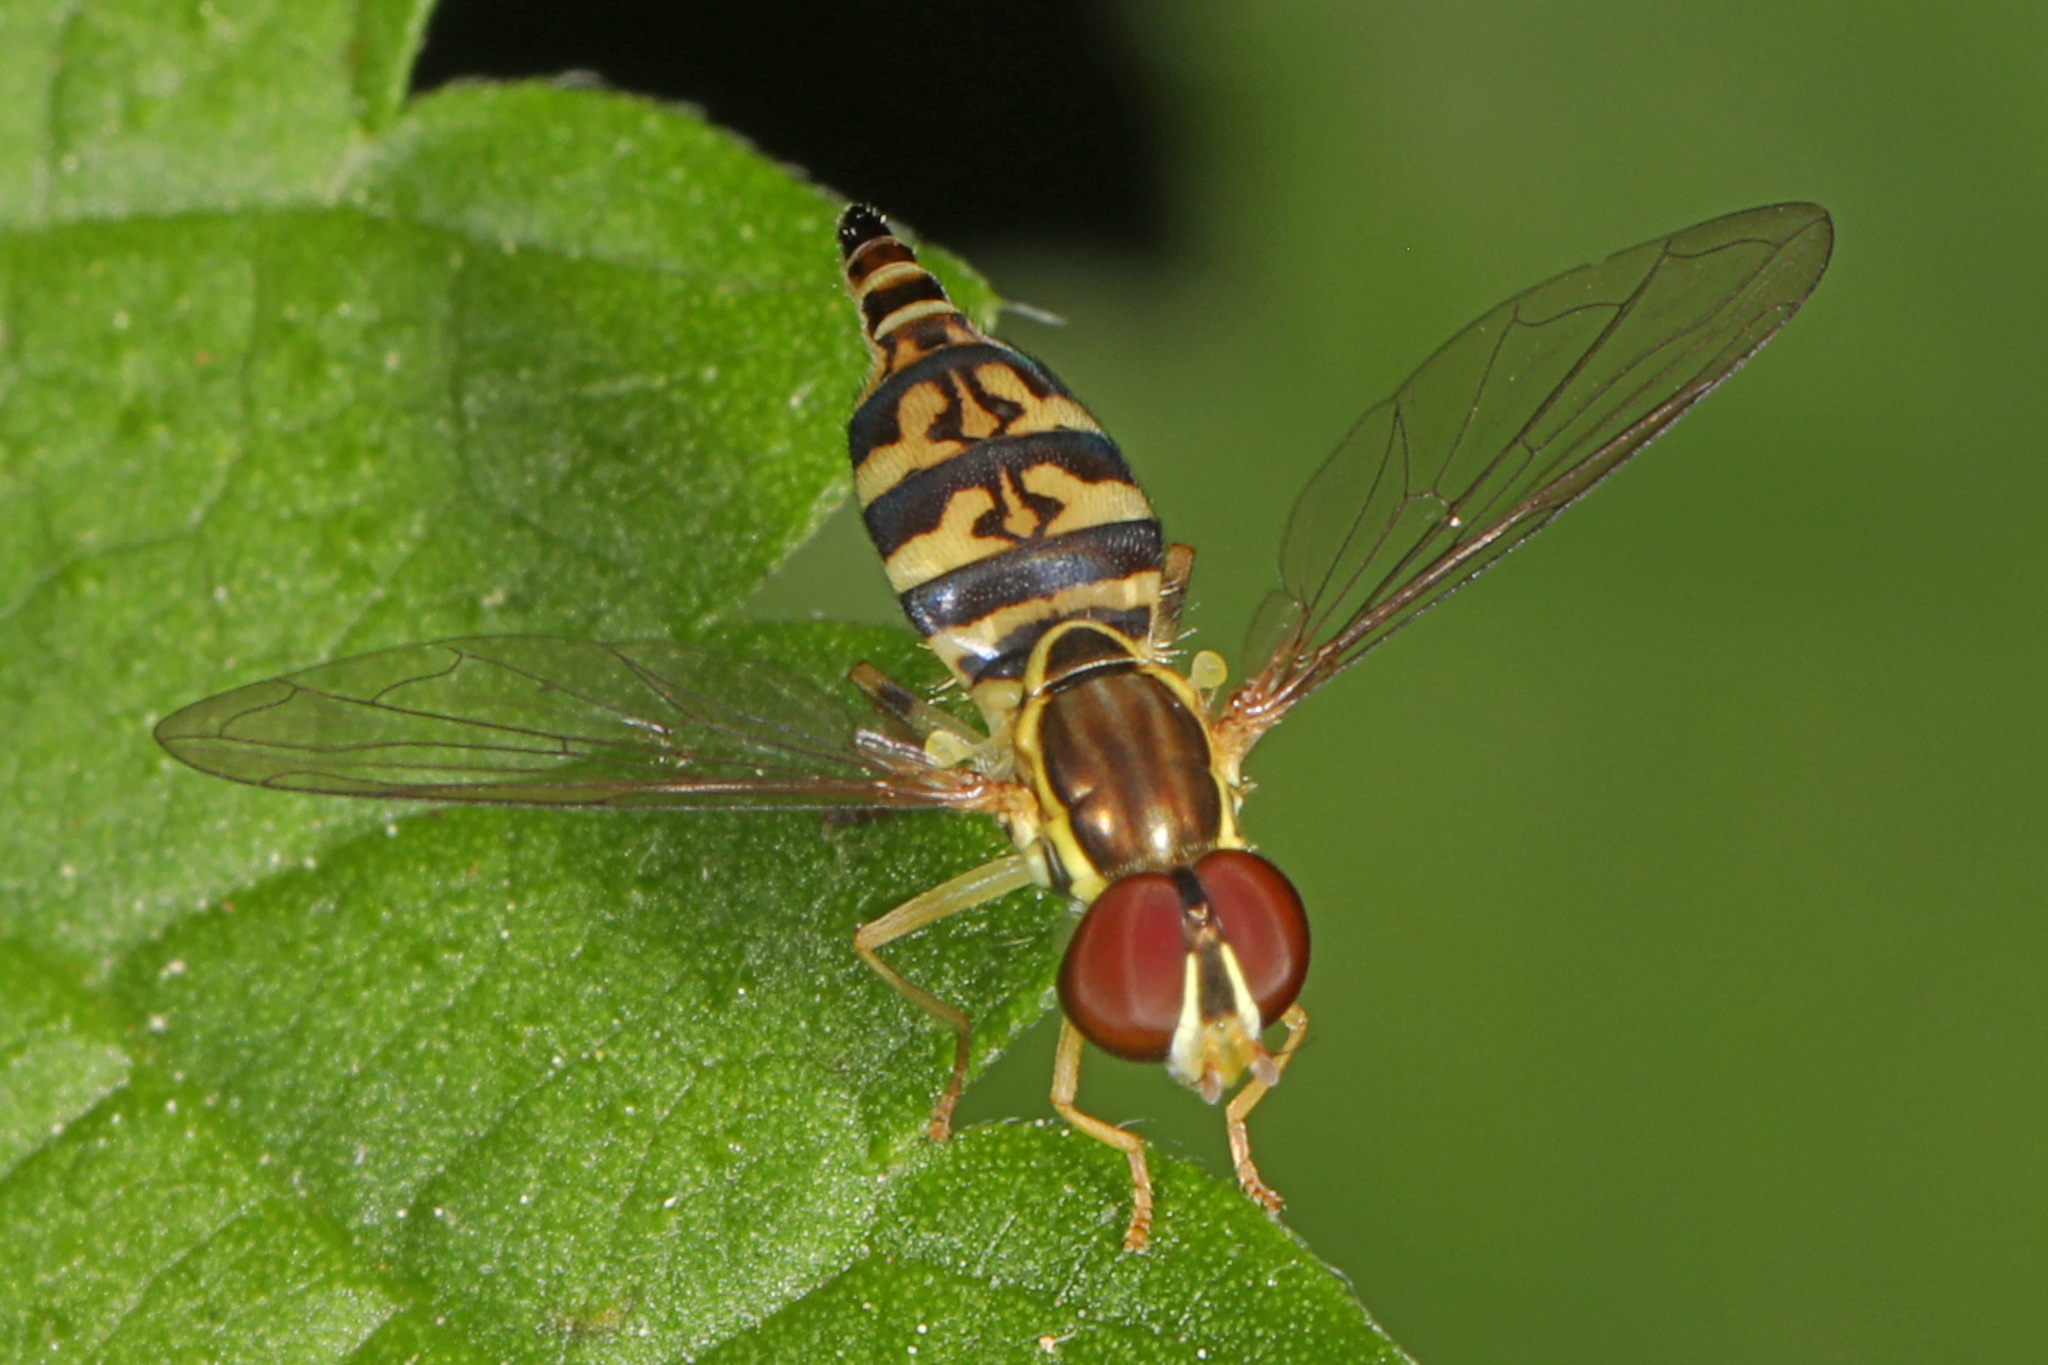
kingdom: Animalia
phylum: Arthropoda
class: Insecta
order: Diptera
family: Syrphidae
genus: Toxomerus
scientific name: Toxomerus geminatus
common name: Eastern calligrapher
